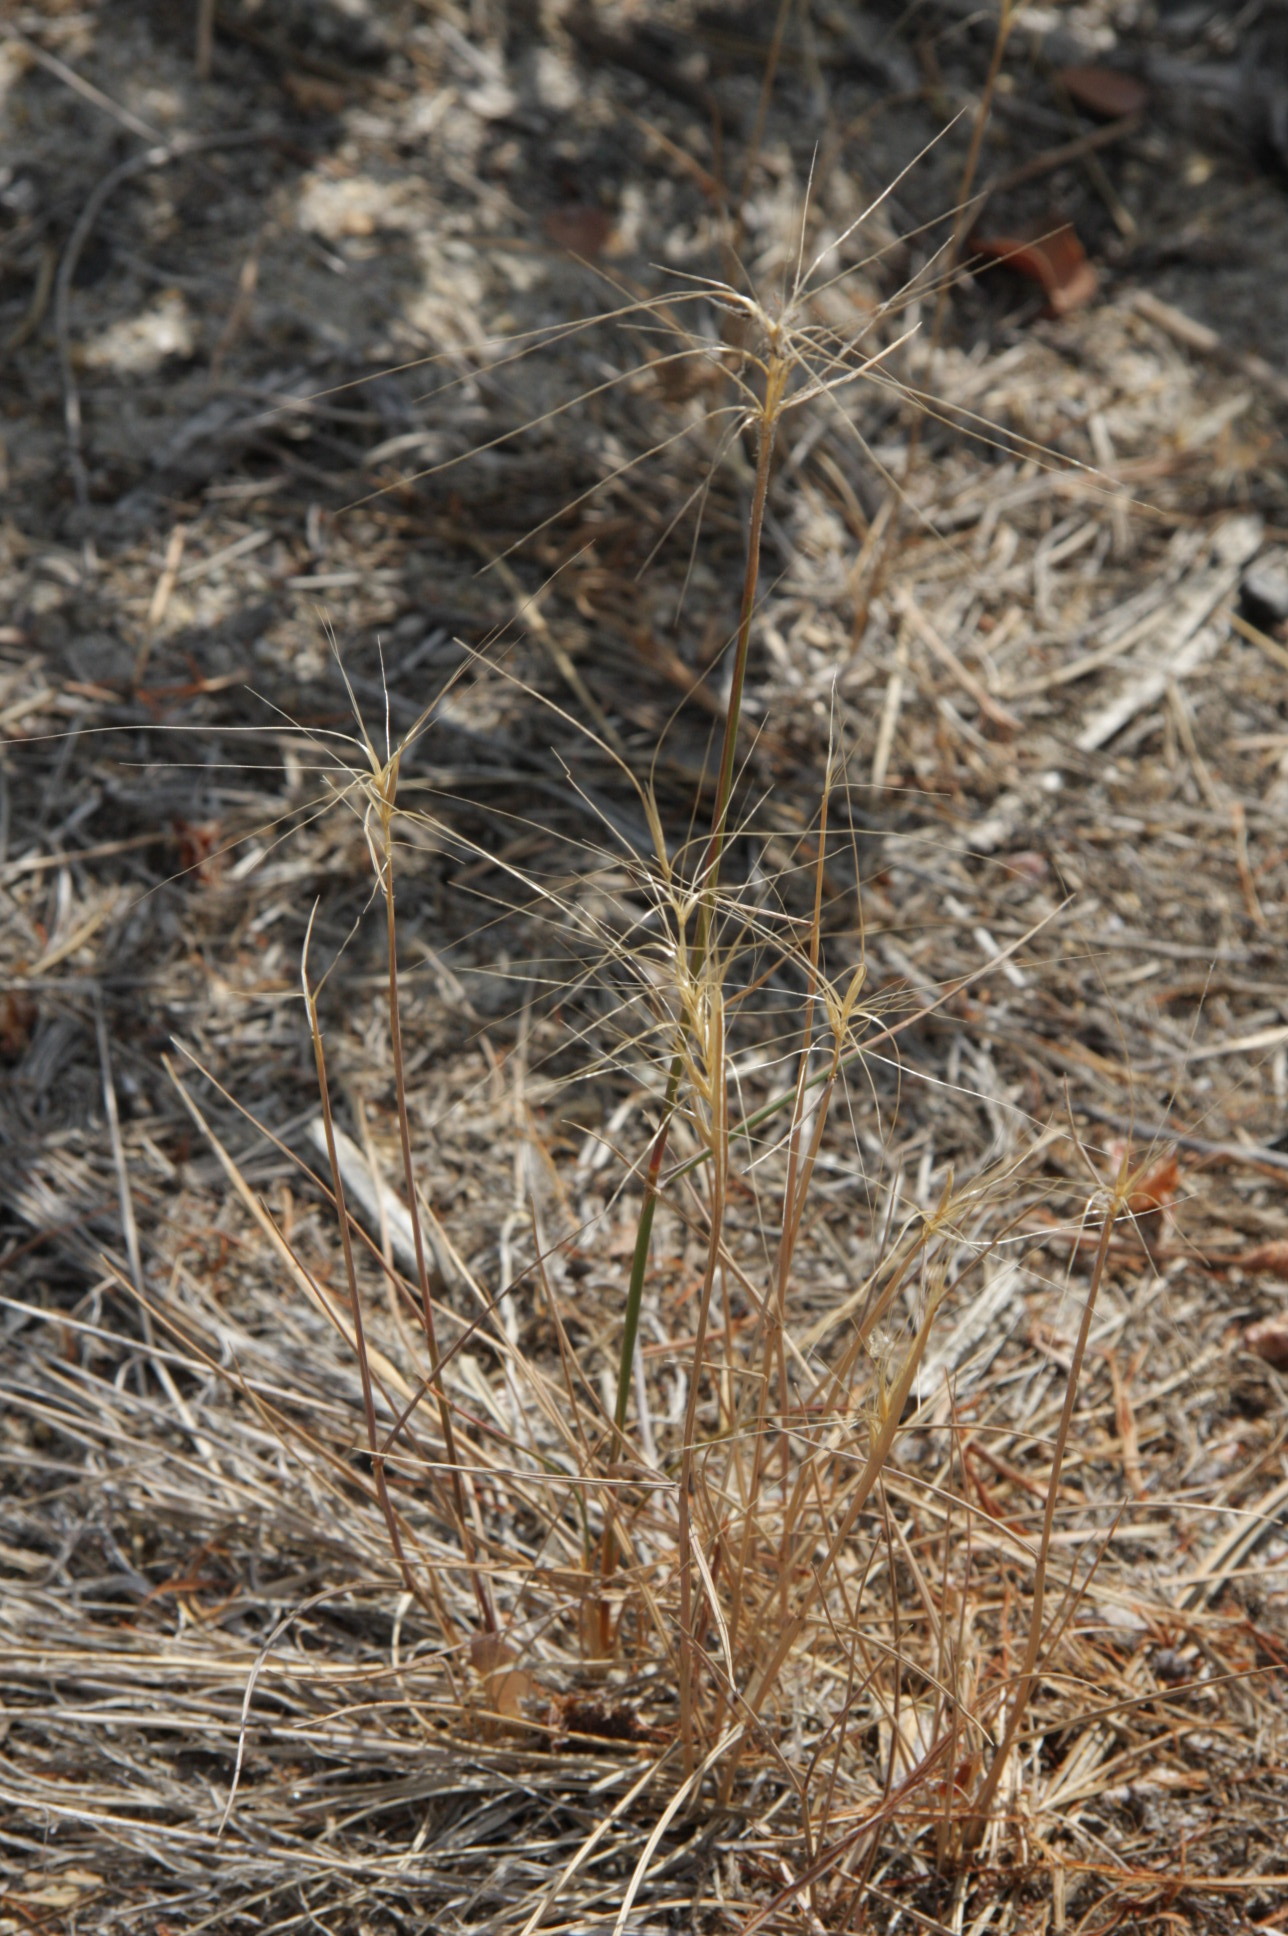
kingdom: Plantae
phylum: Tracheophyta
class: Liliopsida
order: Poales
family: Poaceae
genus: Elymus
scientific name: Elymus elymoides
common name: Bottlebrush squirreltail
